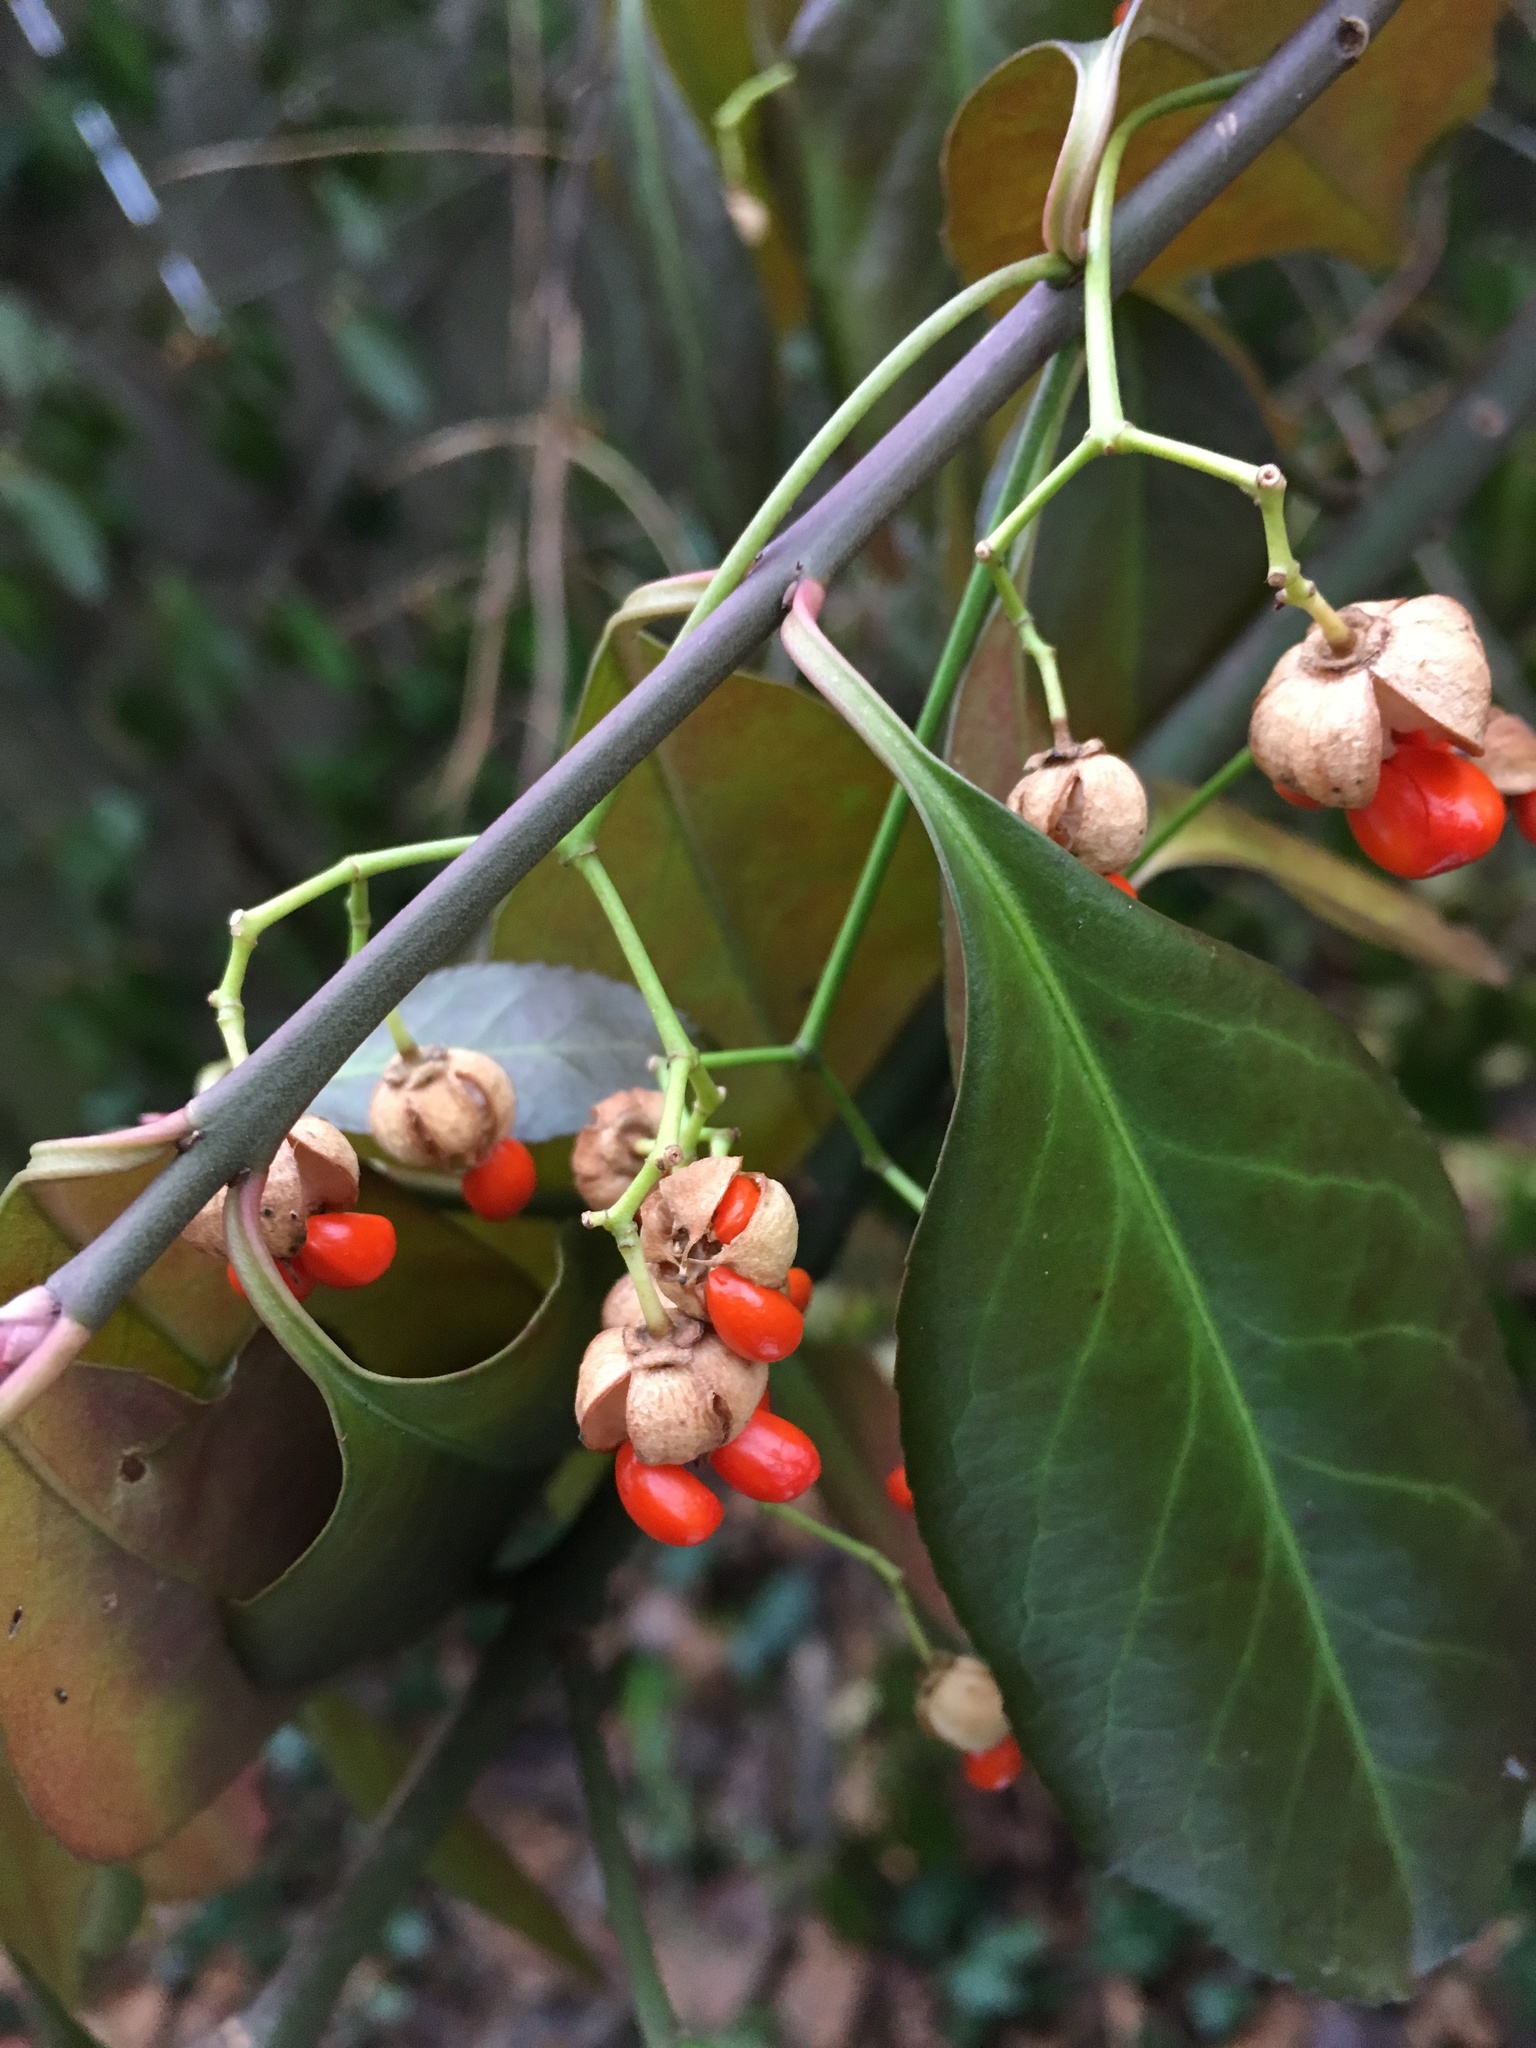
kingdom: Plantae
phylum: Tracheophyta
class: Magnoliopsida
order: Celastrales
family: Celastraceae
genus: Euonymus
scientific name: Euonymus fortunei
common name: Climbing euonymus
